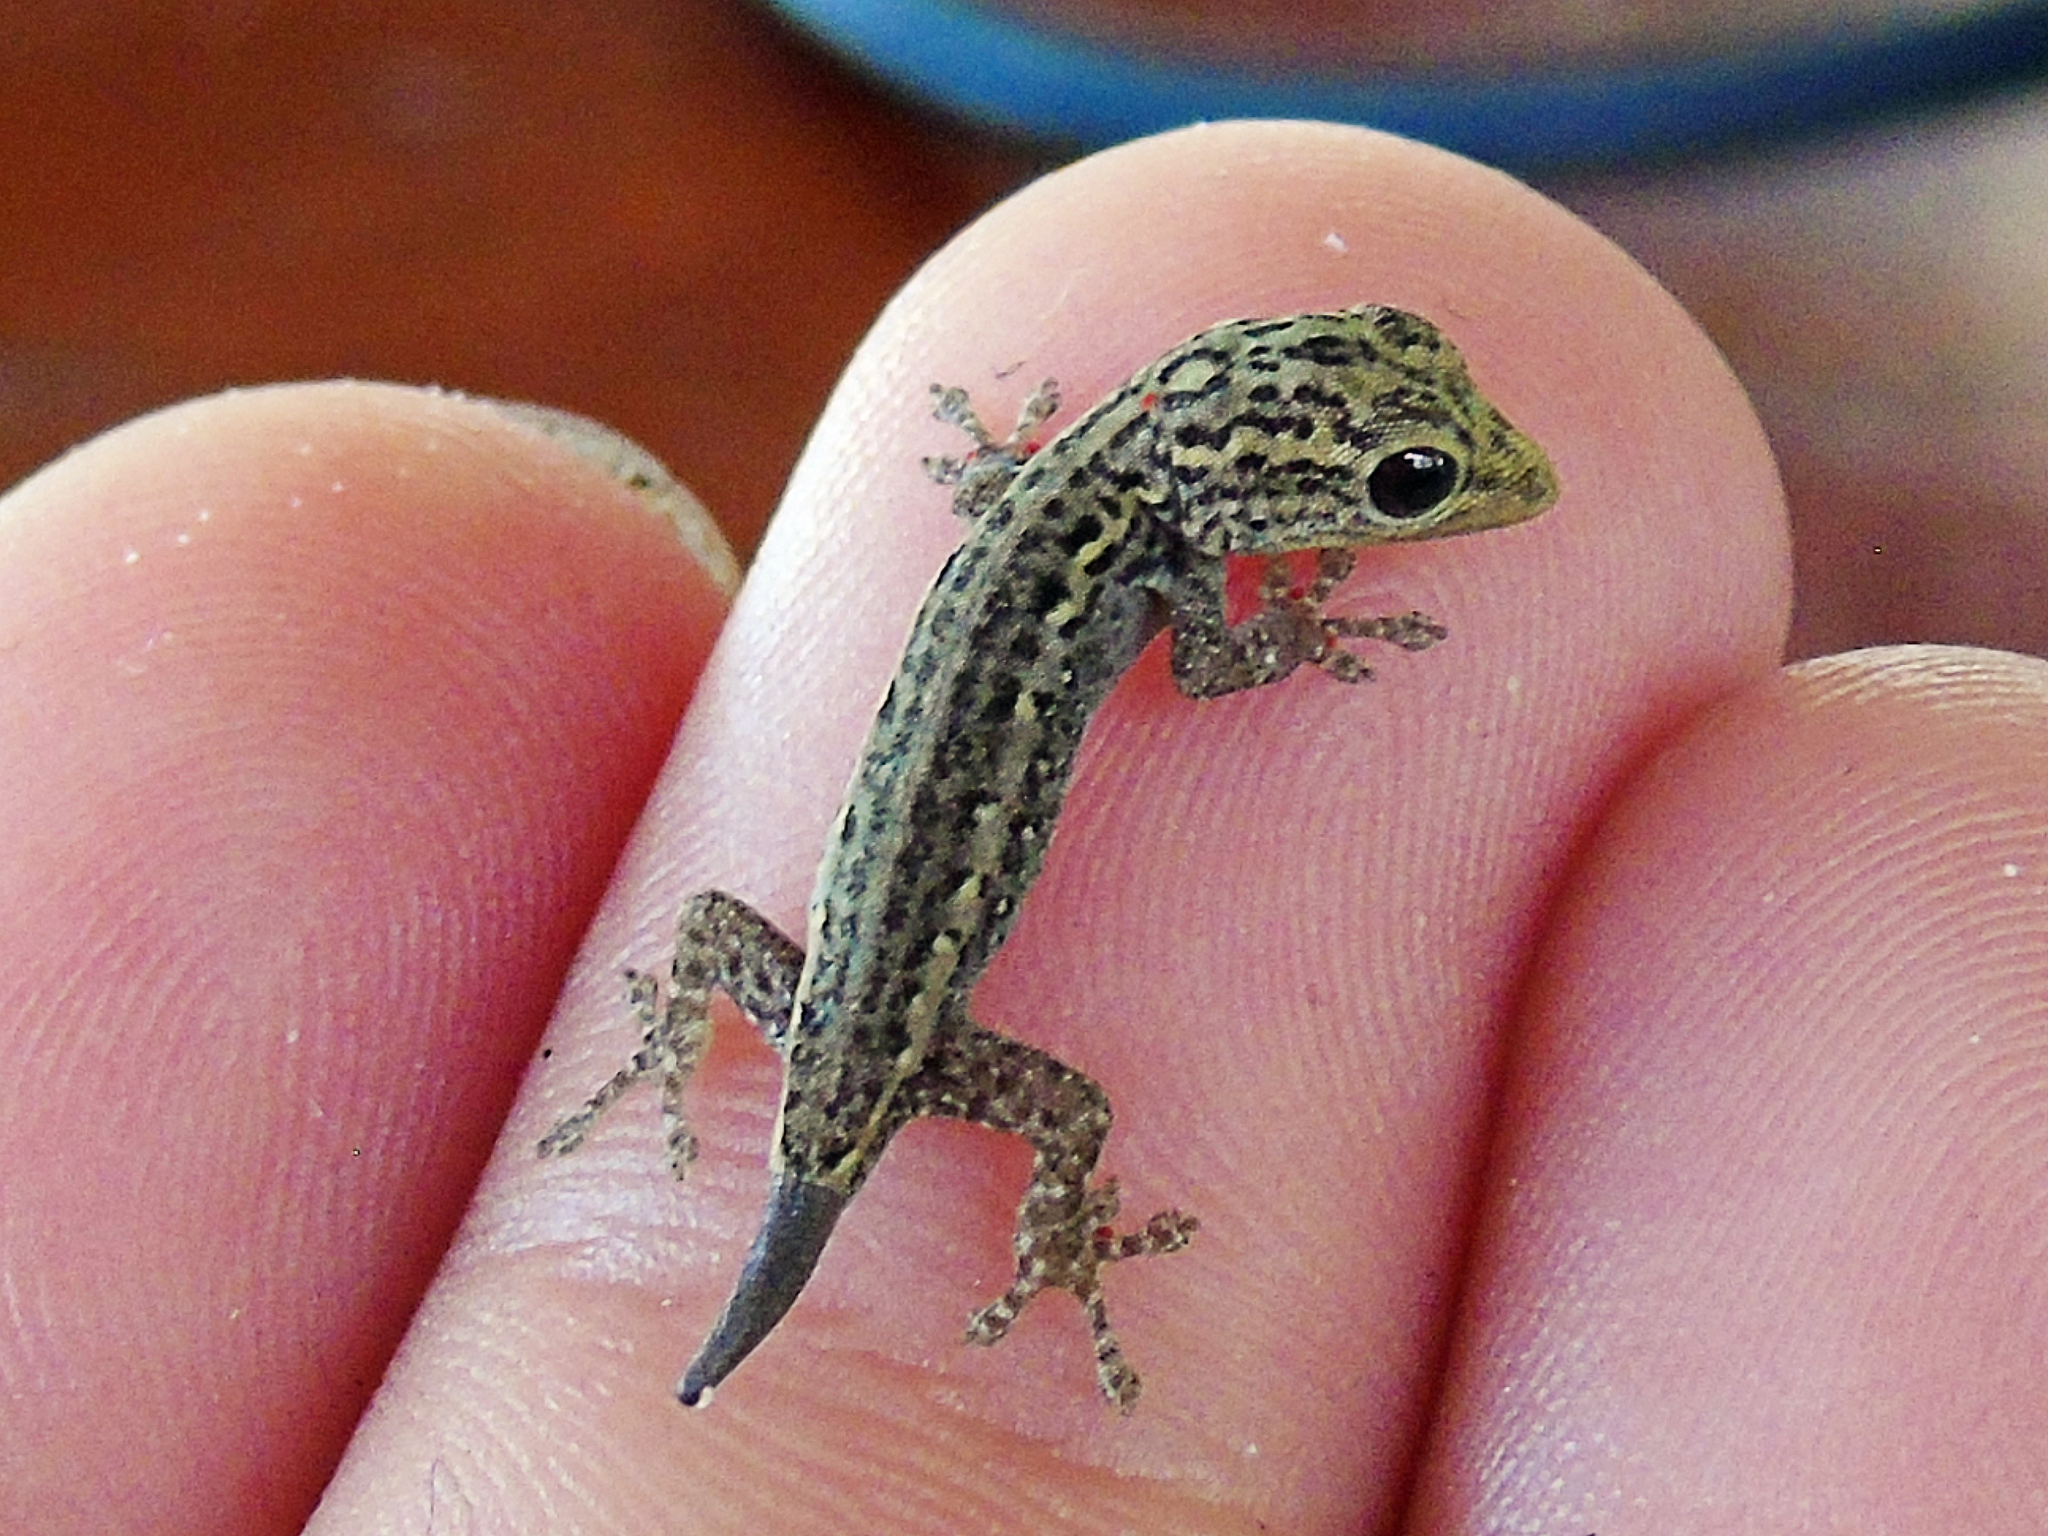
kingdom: Animalia
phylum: Chordata
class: Squamata
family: Gekkonidae
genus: Lygodactylus
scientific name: Lygodactylus picturatus
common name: Painted dwarf gecko
